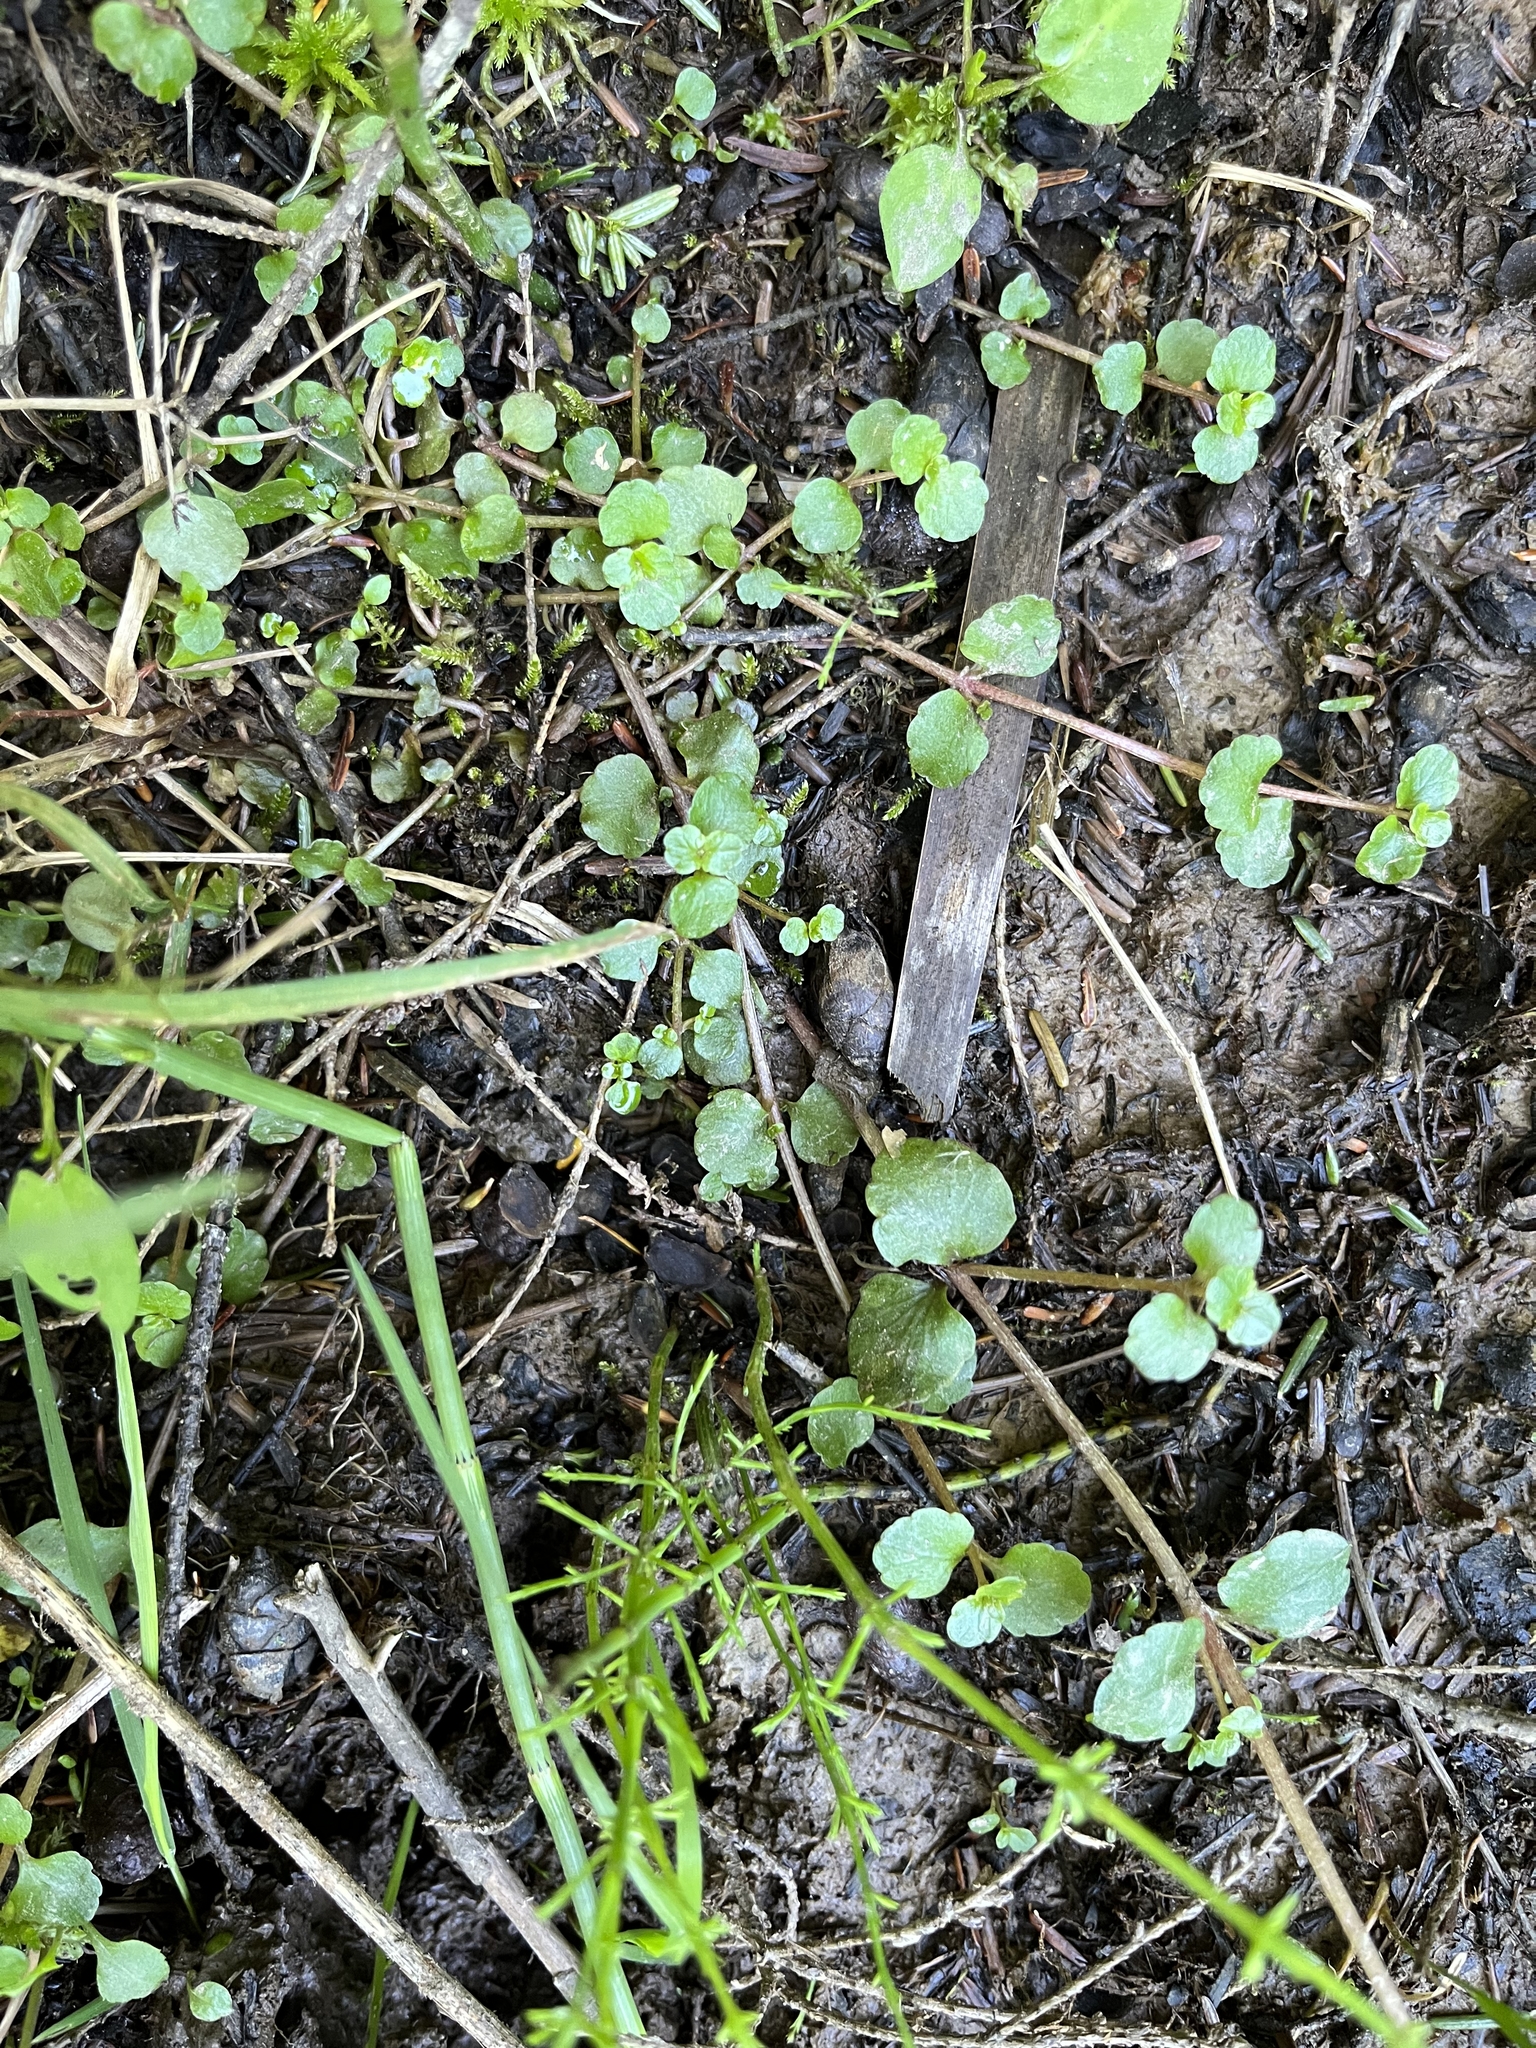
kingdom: Plantae
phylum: Tracheophyta
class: Magnoliopsida
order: Saxifragales
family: Saxifragaceae
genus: Chrysosplenium
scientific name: Chrysosplenium americanum
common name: American golden-saxifrage
